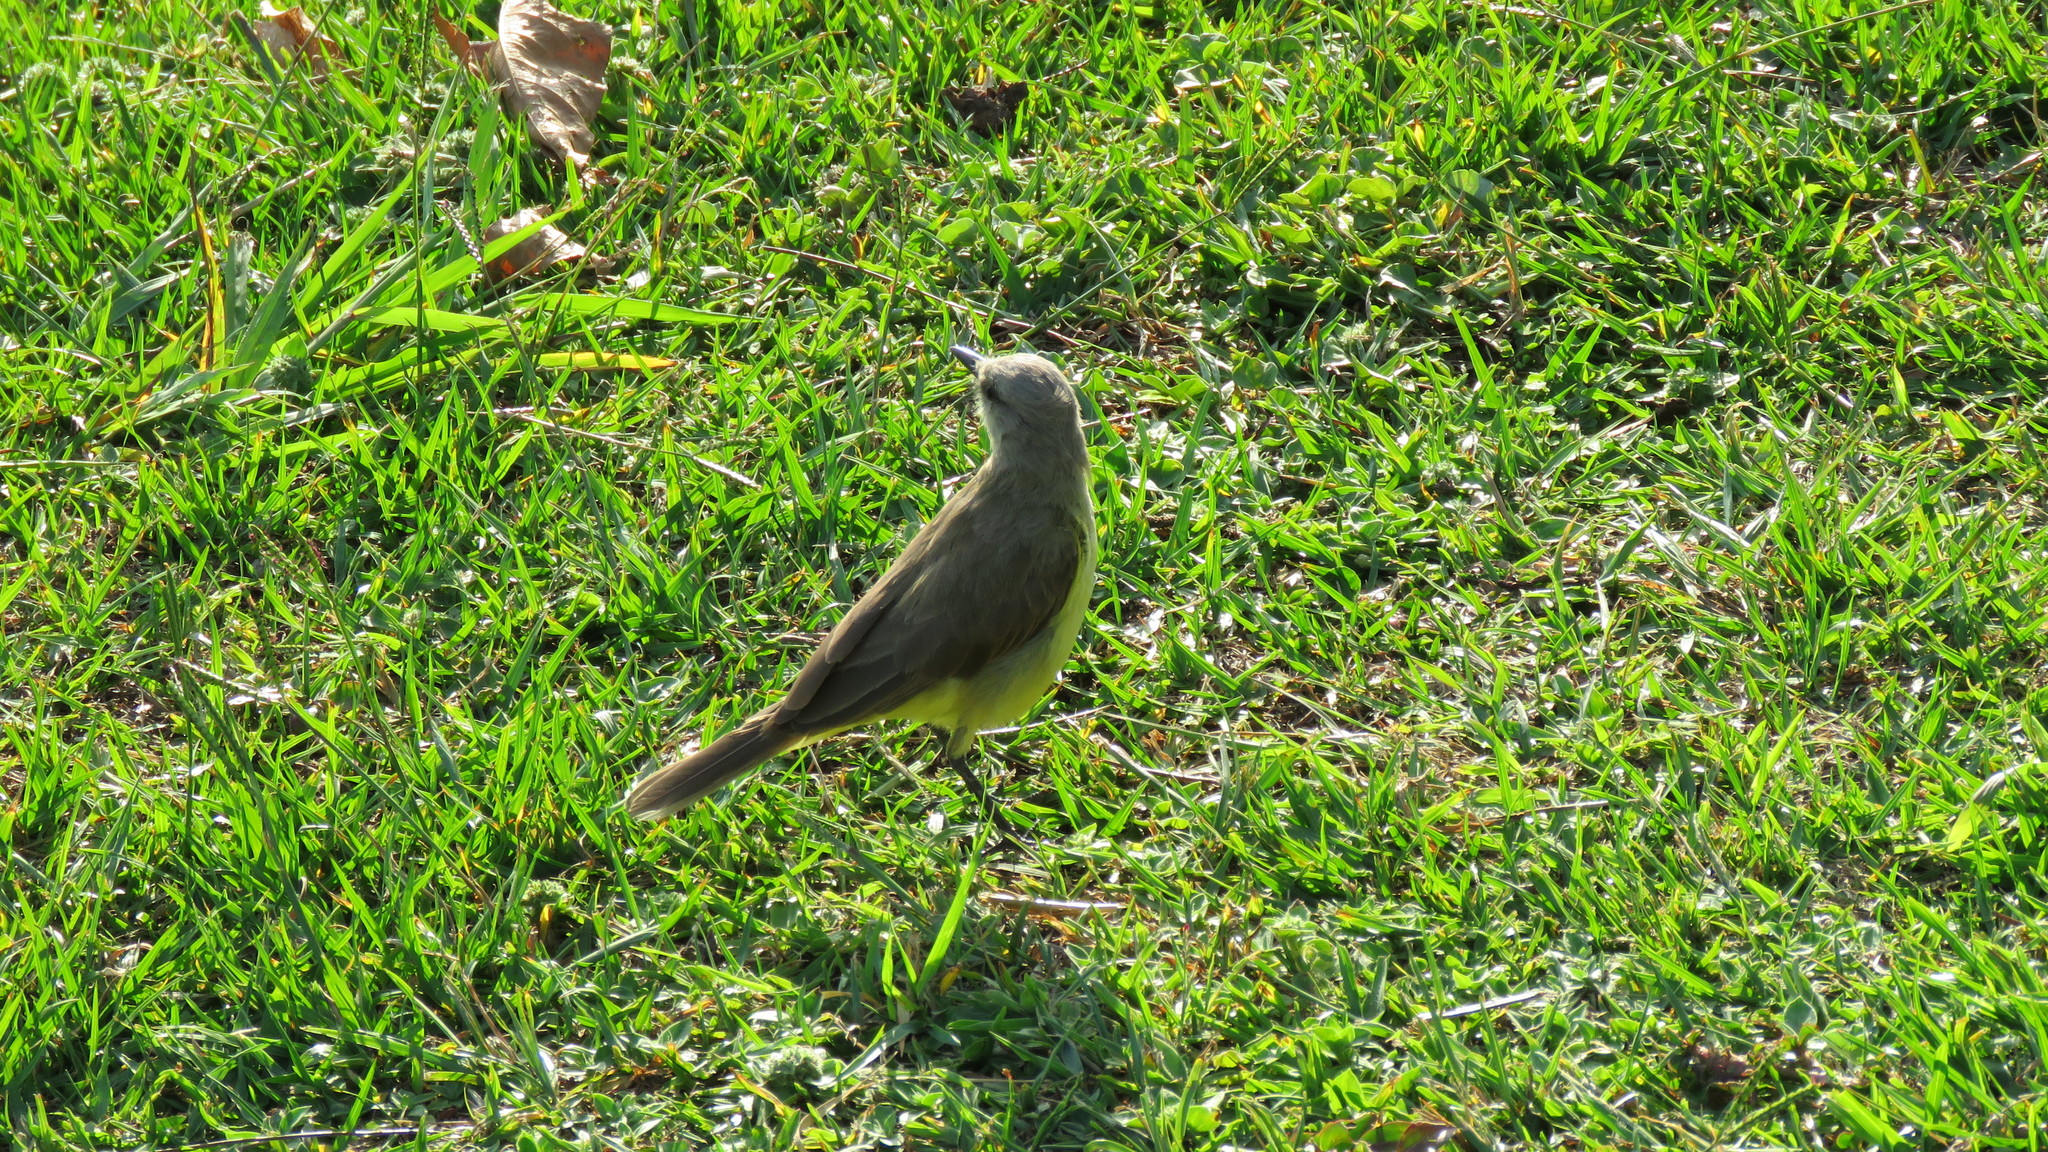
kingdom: Animalia
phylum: Chordata
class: Aves
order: Passeriformes
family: Tyrannidae
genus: Machetornis
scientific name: Machetornis rixosa
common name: Cattle tyrant
